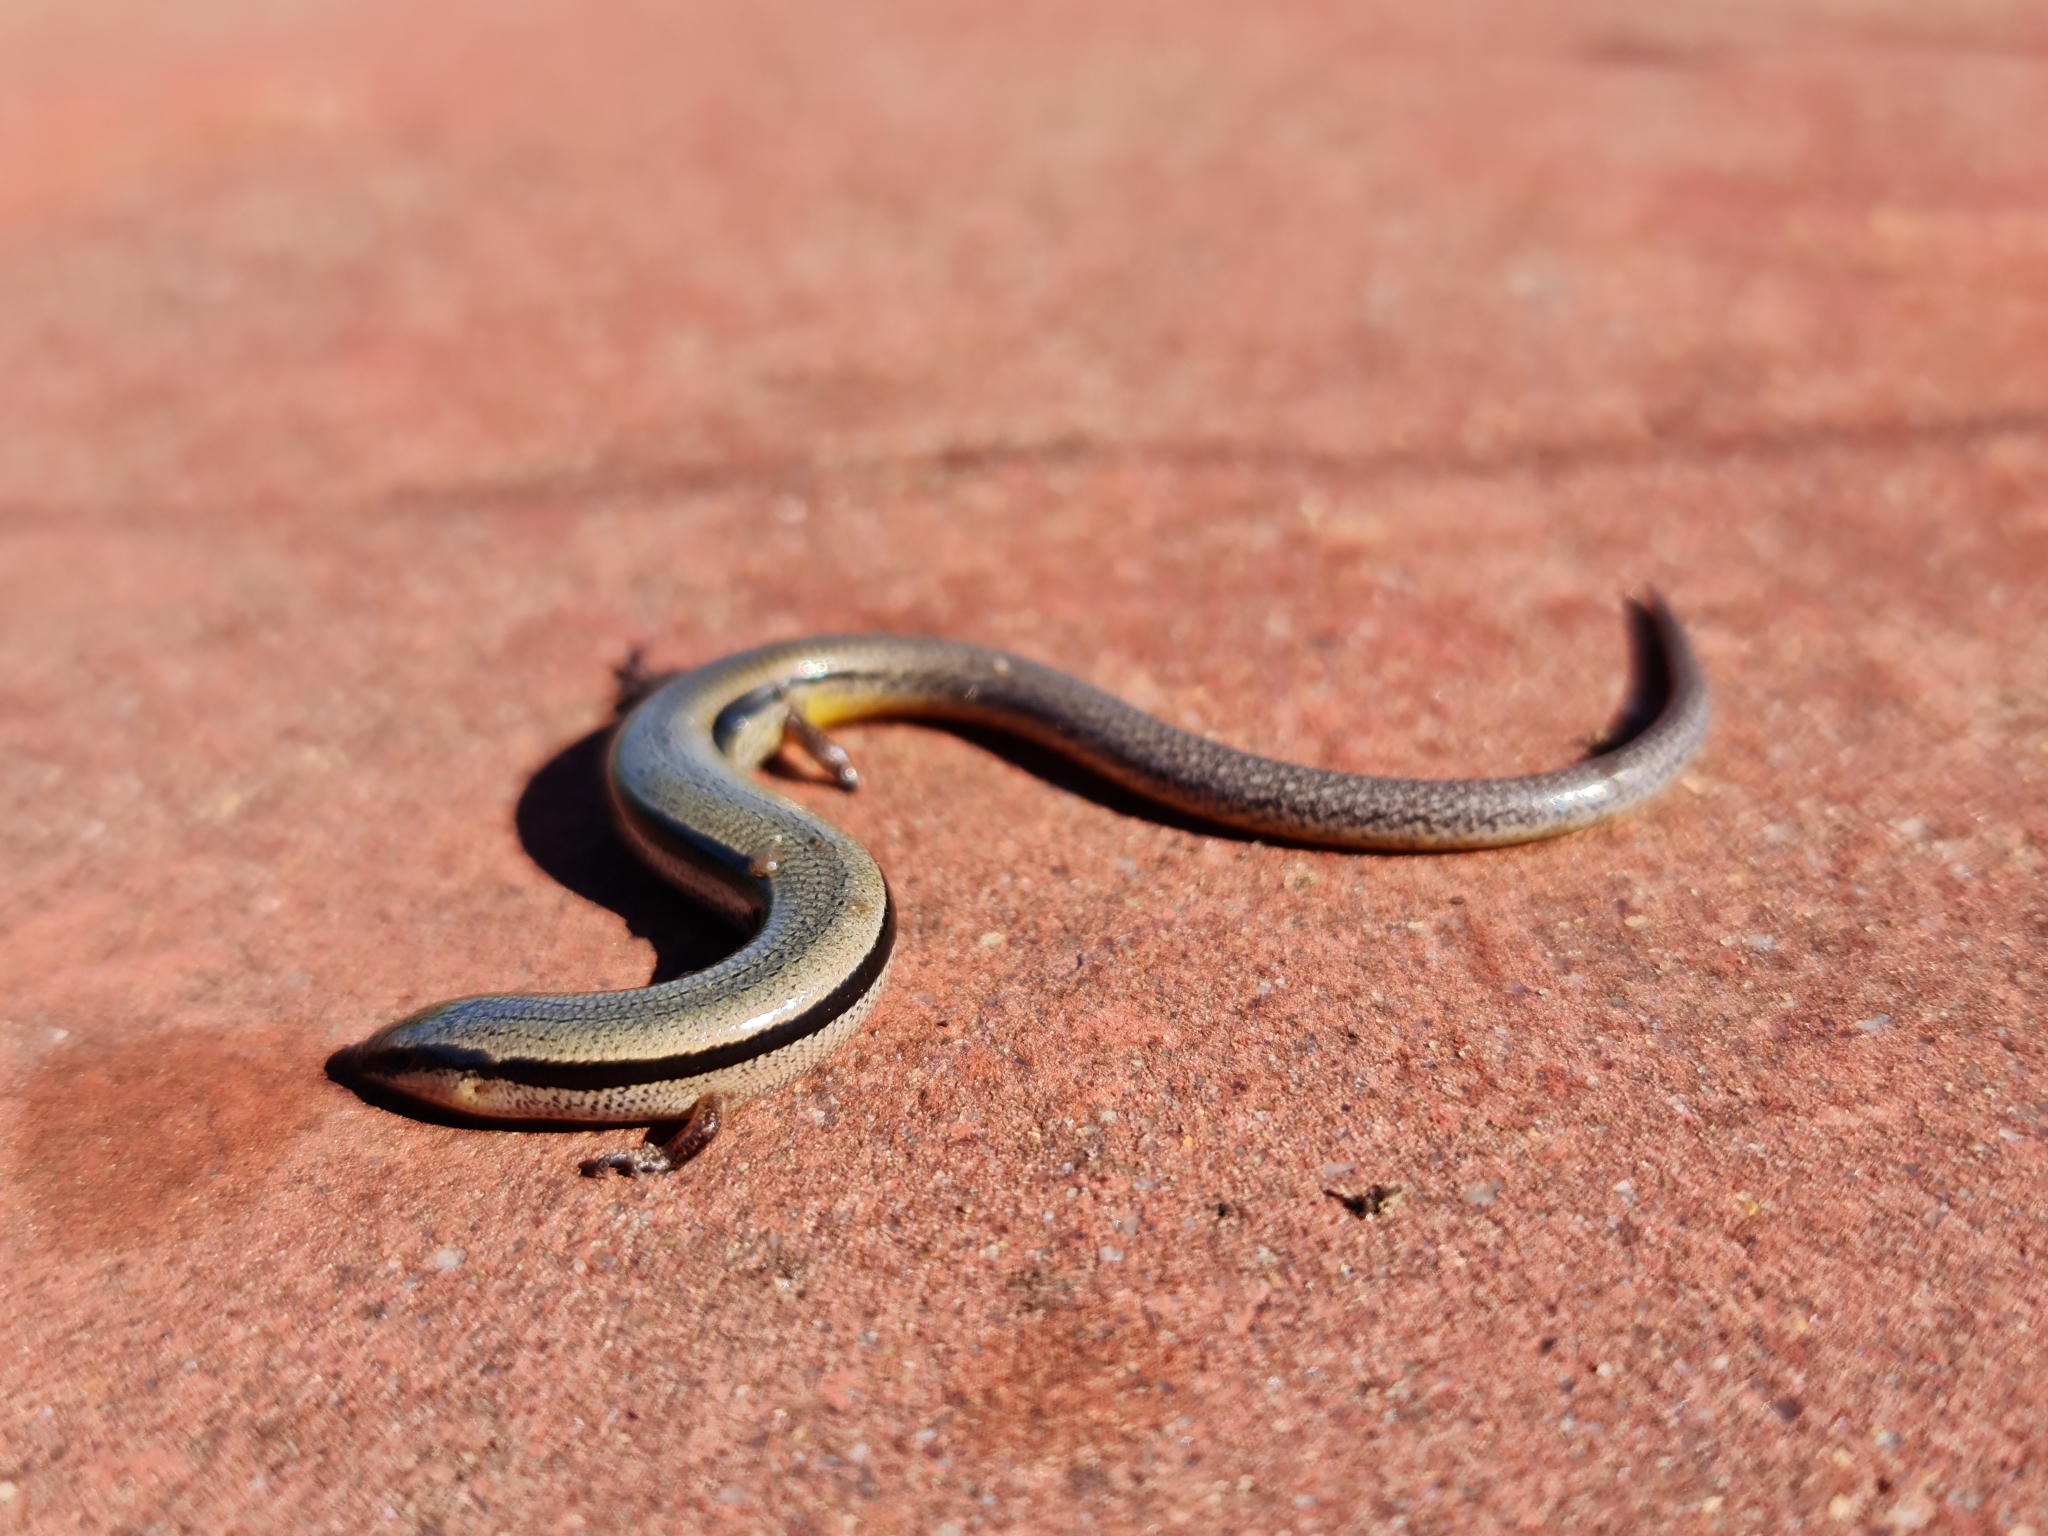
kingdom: Animalia
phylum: Chordata
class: Squamata
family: Scincidae
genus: Lerista
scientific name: Lerista bougainvillii
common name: South-eastern slider
